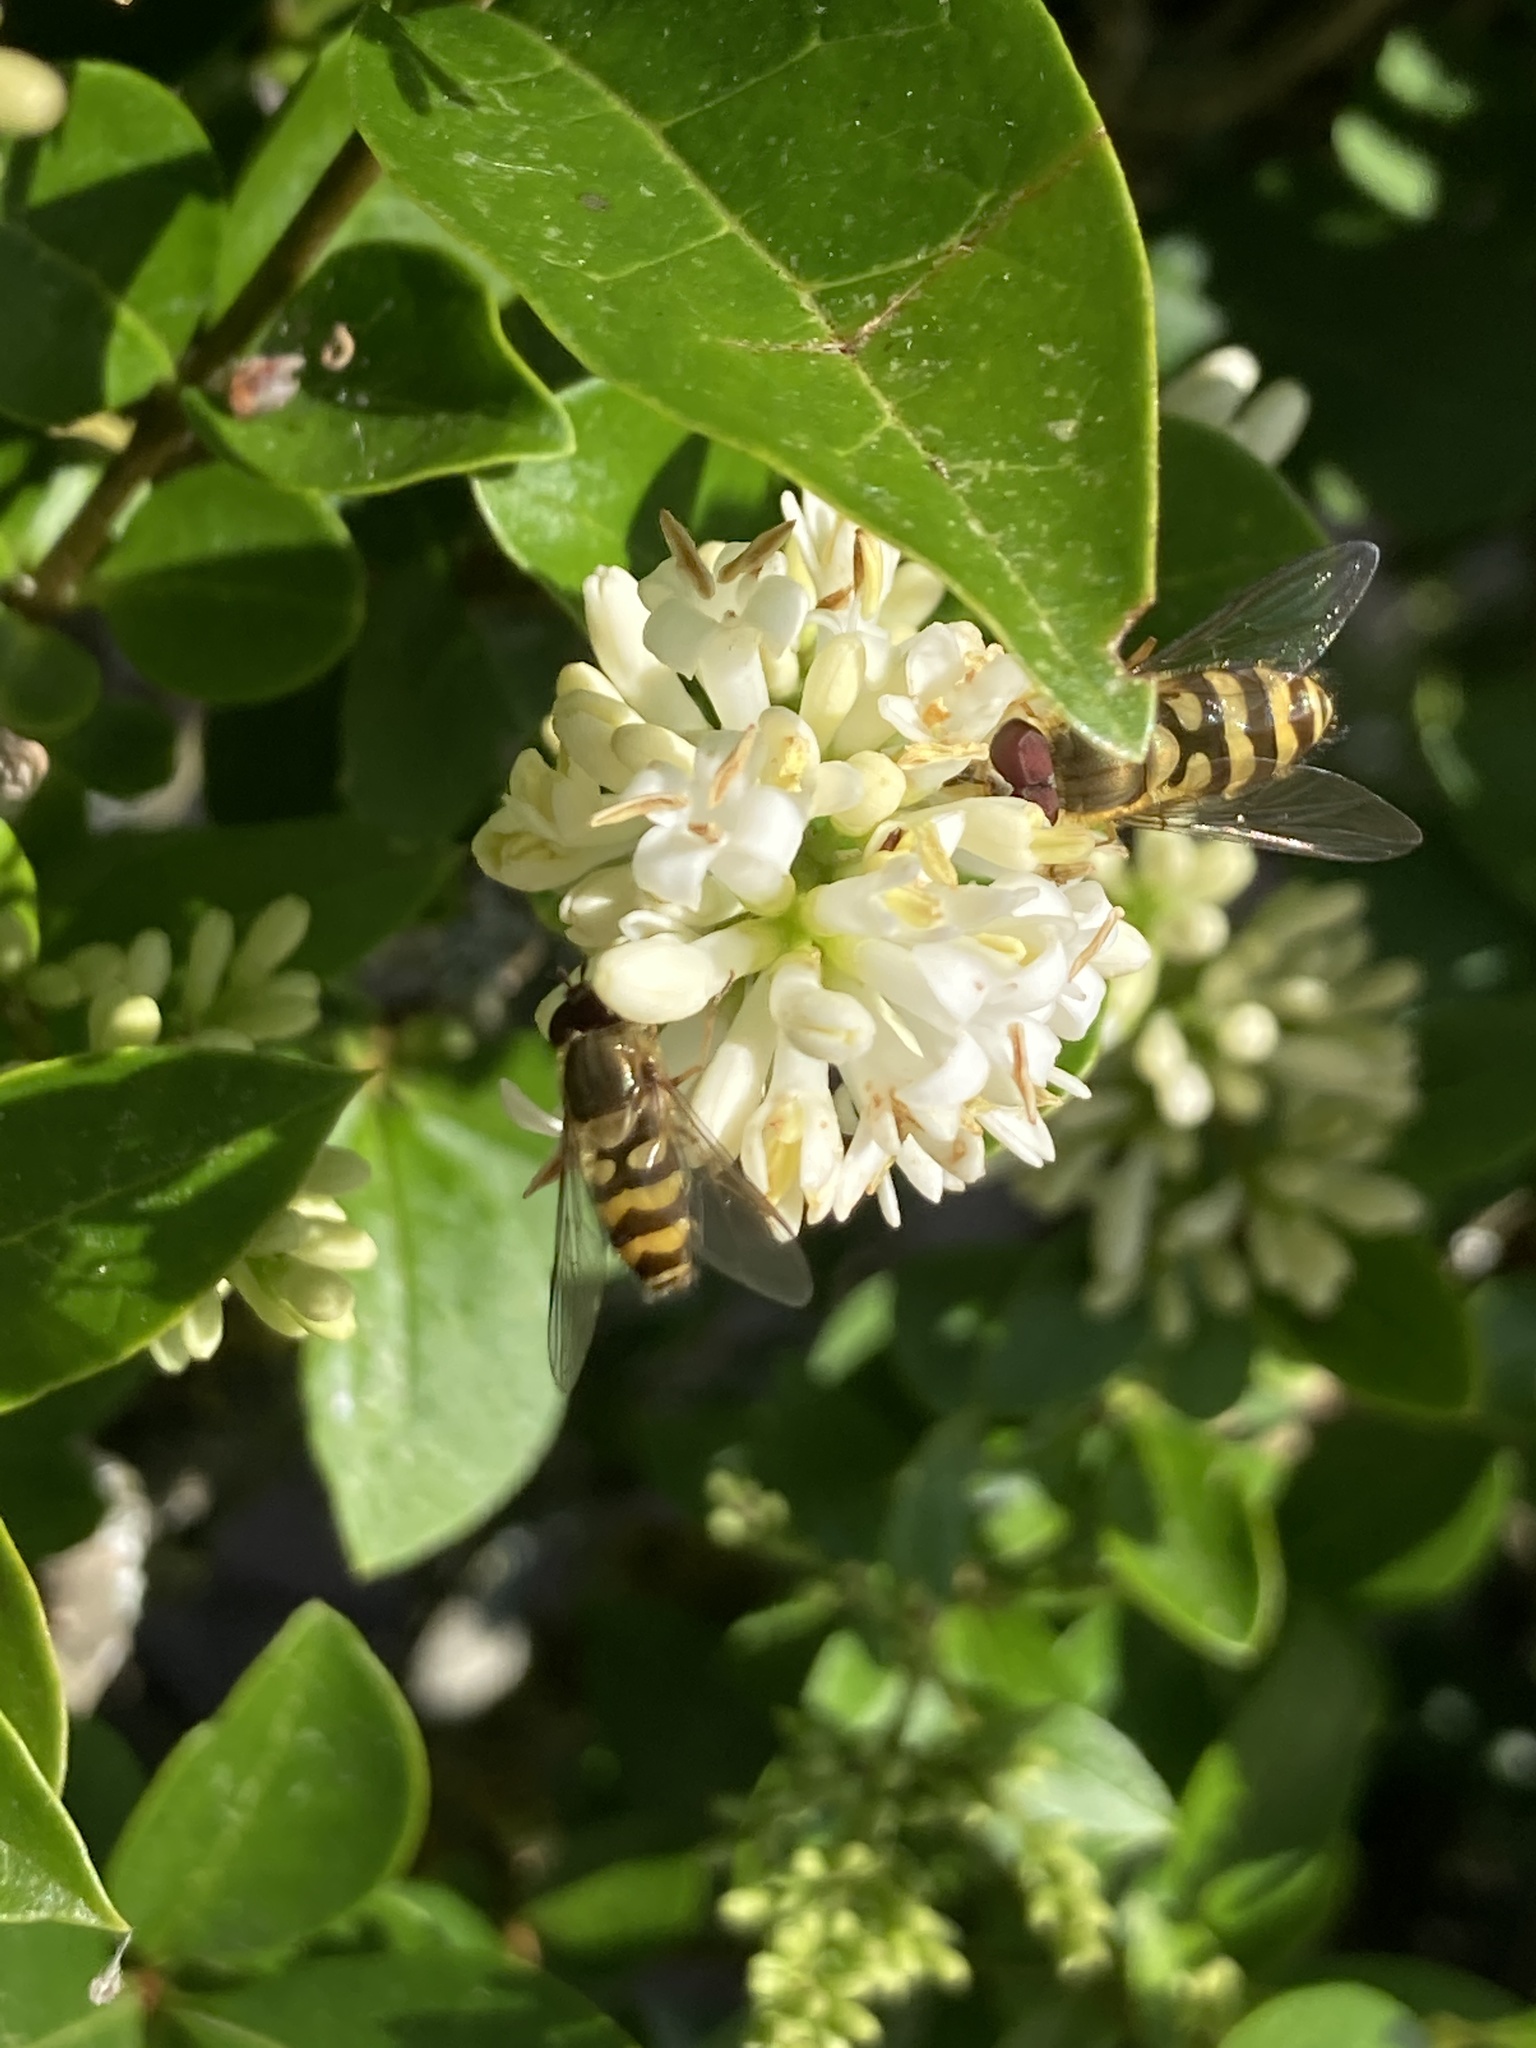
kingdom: Animalia
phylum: Arthropoda
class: Insecta
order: Diptera
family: Syrphidae
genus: Syrphus
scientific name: Syrphus
